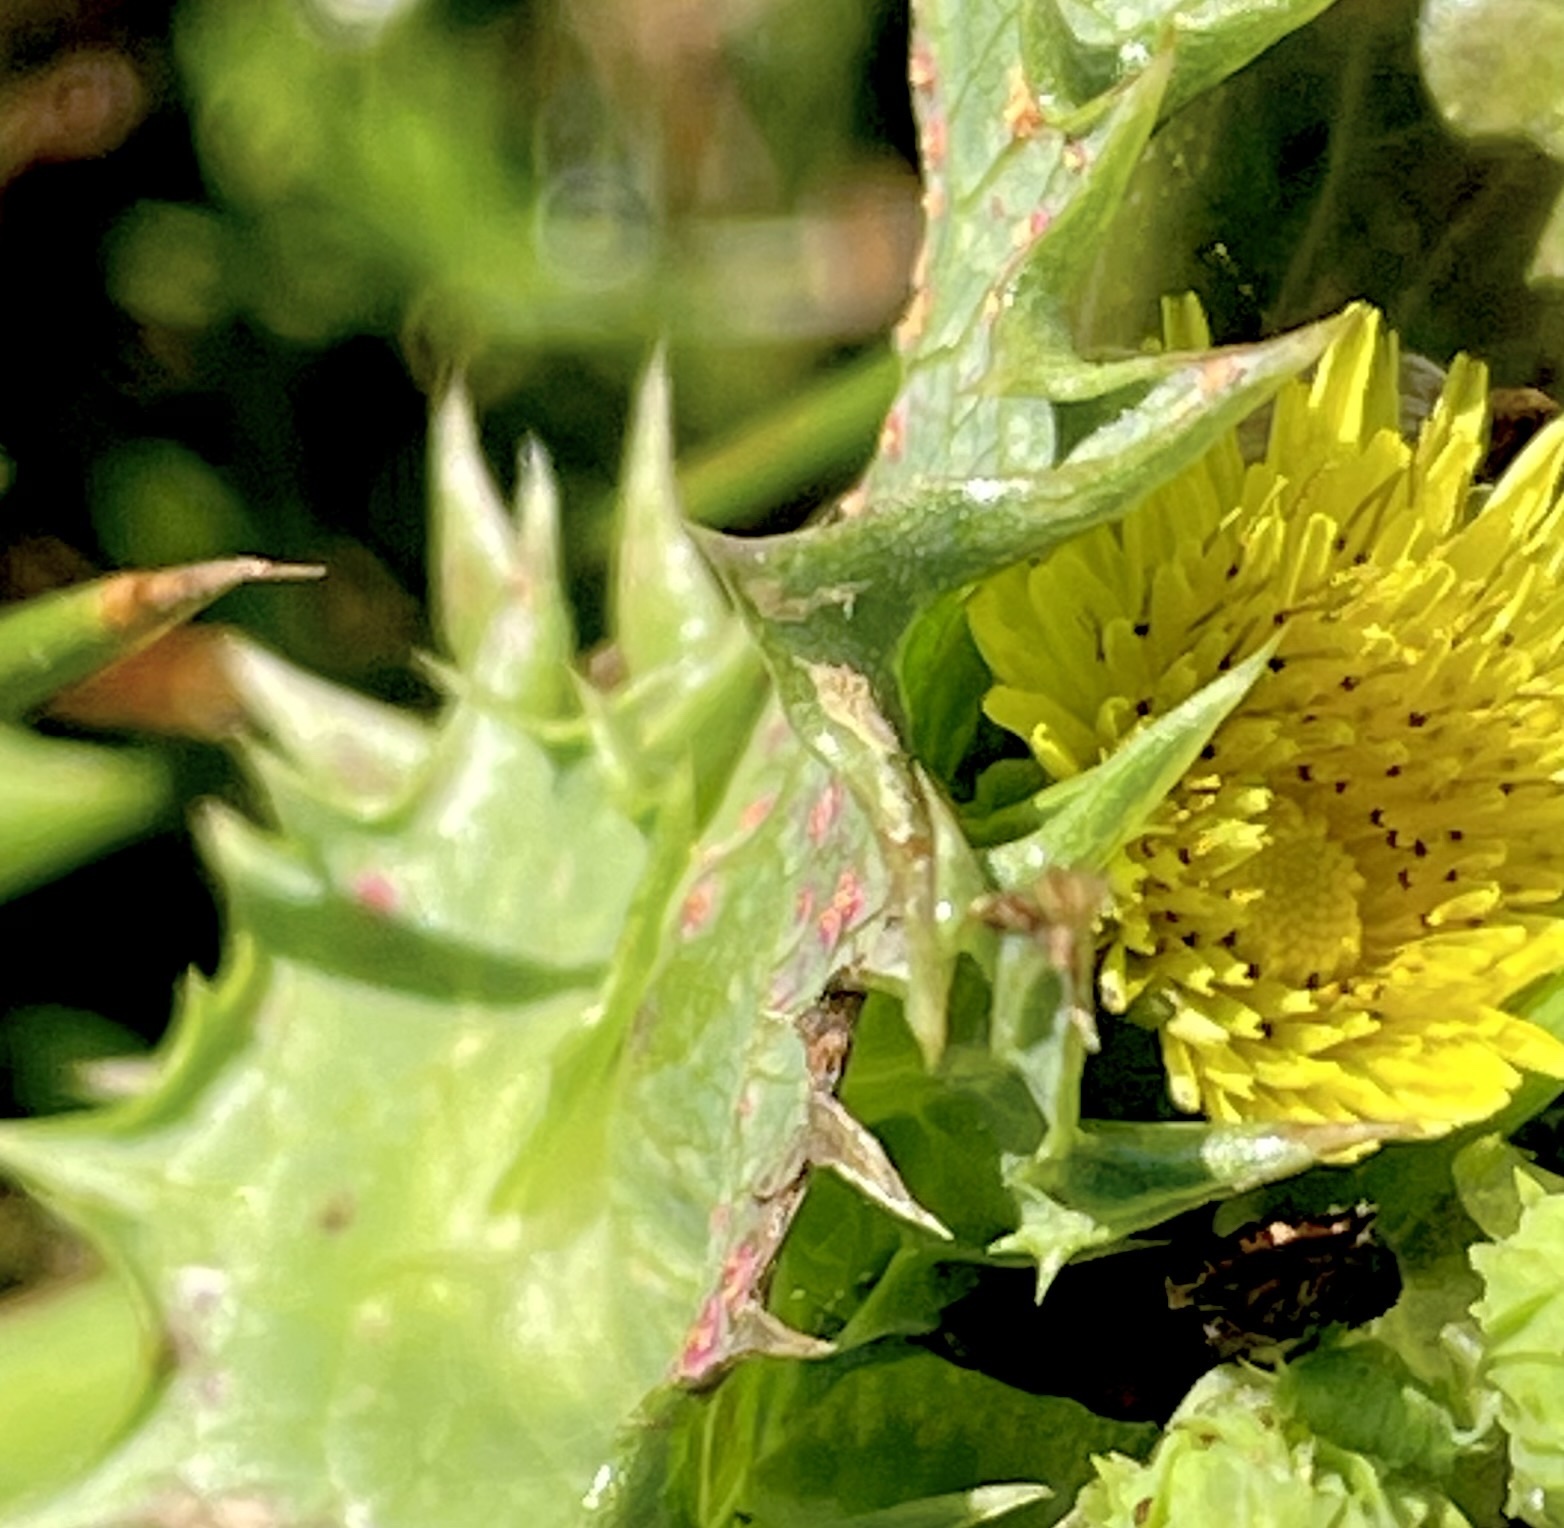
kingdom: Plantae
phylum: Tracheophyta
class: Magnoliopsida
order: Asterales
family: Asteraceae
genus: Sonchus
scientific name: Sonchus asper
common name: Prickly sow-thistle
